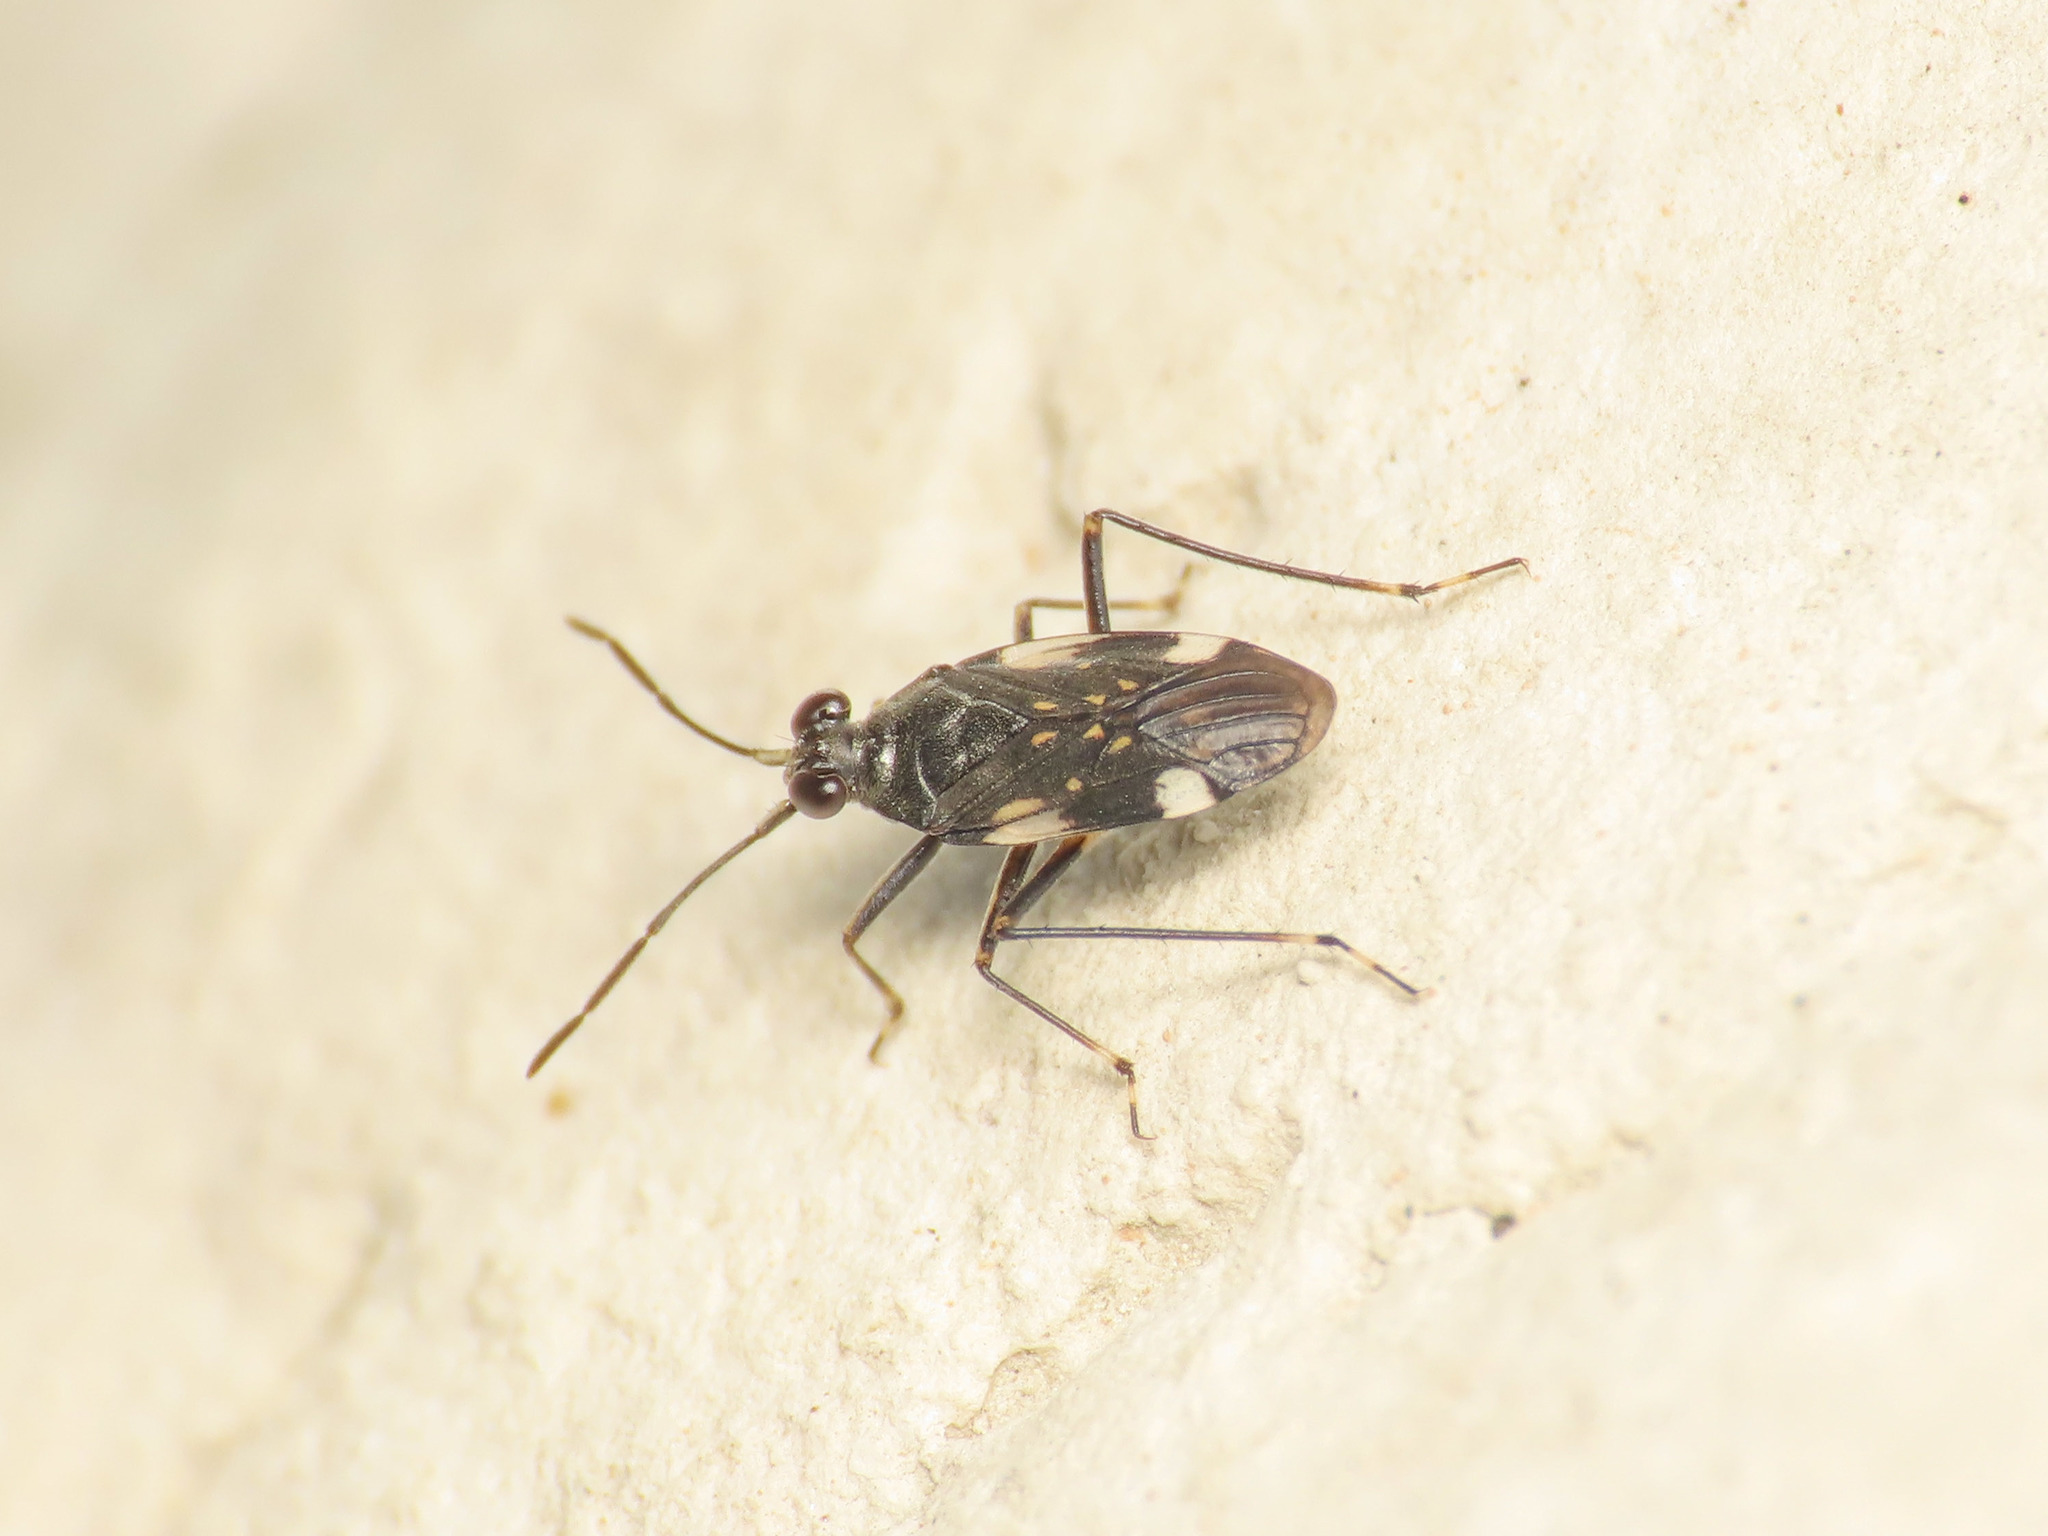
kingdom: Animalia
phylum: Arthropoda
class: Insecta
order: Hemiptera
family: Saldidae
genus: Macrosaldula
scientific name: Macrosaldula variabilis
